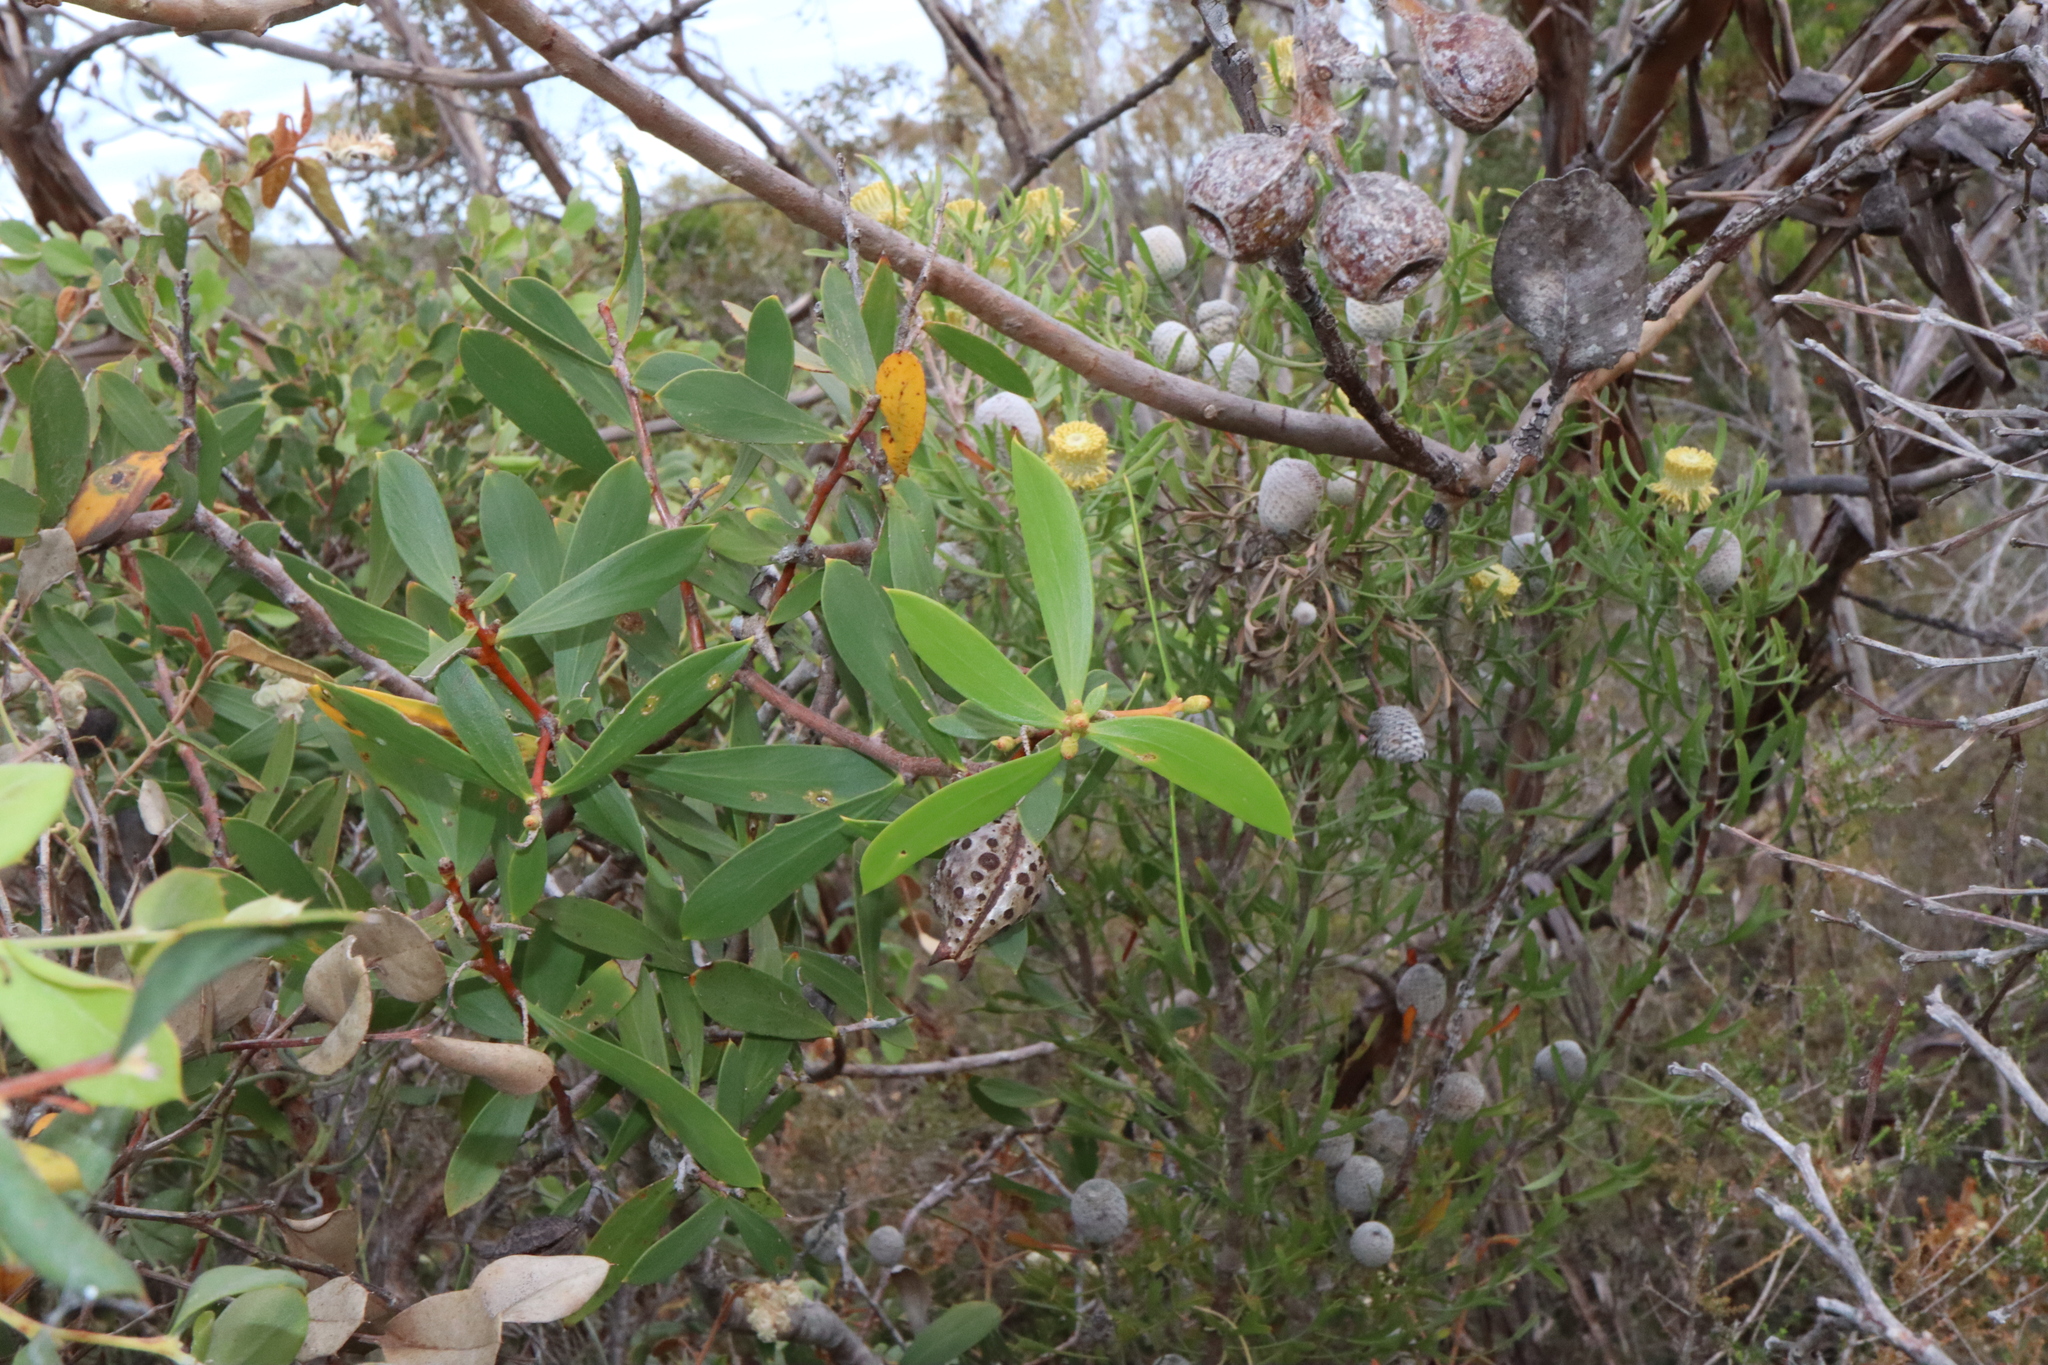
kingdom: Plantae
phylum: Tracheophyta
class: Magnoliopsida
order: Proteales
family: Proteaceae
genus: Hakea
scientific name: Hakea nitida
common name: Frog hakea
